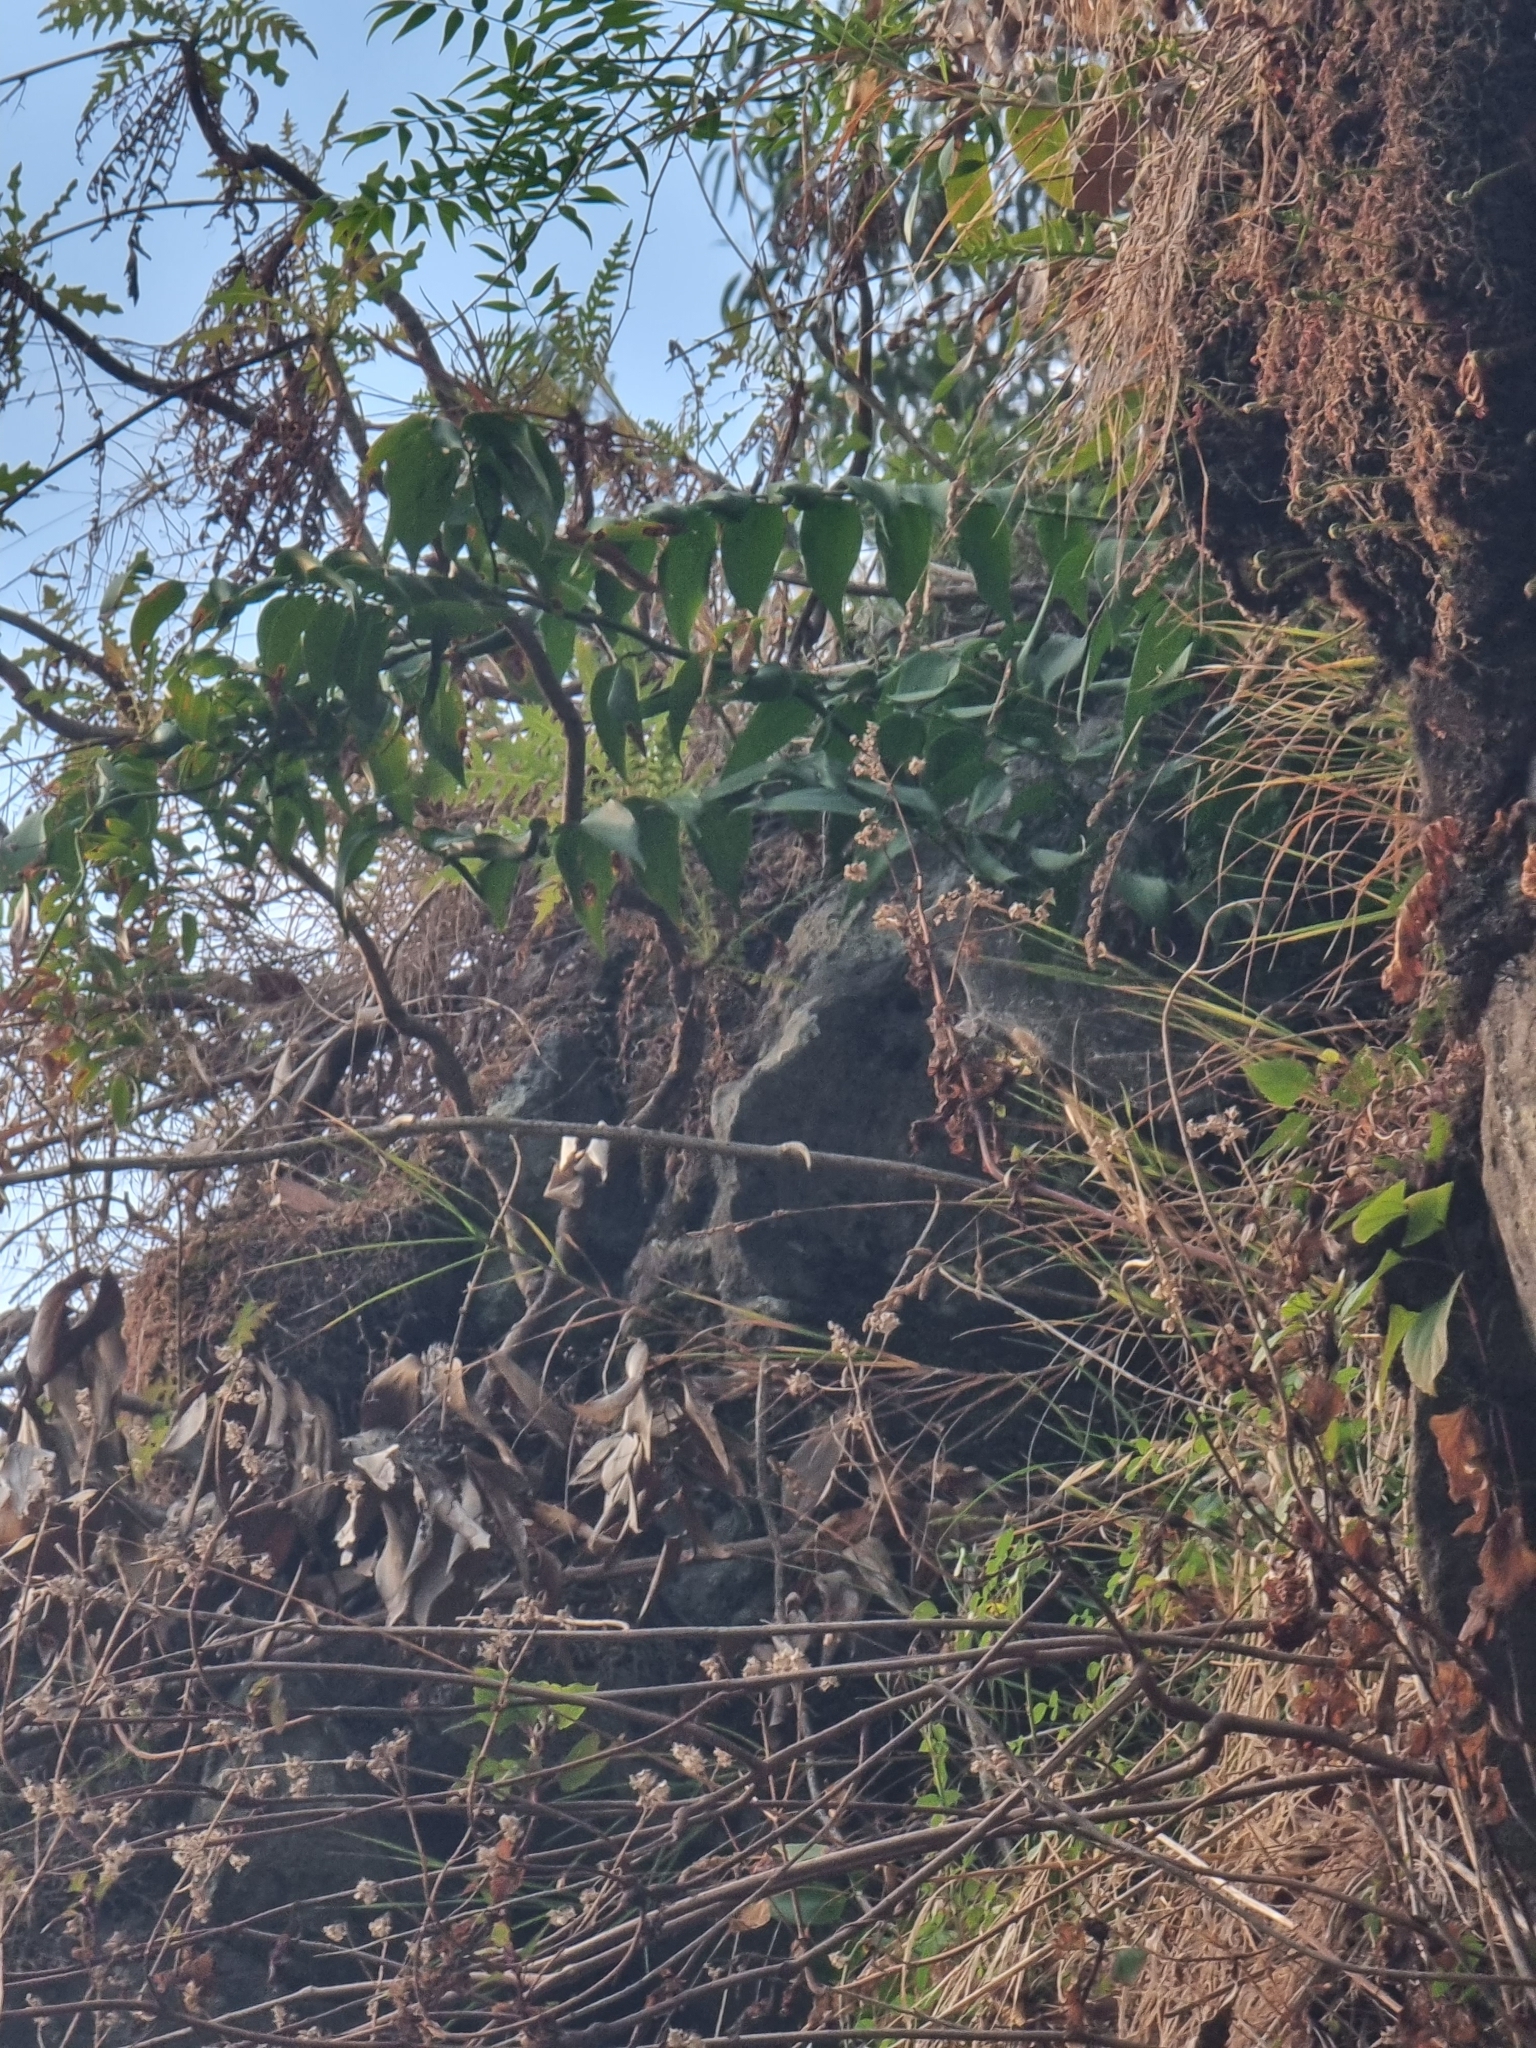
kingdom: Plantae
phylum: Tracheophyta
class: Liliopsida
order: Asparagales
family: Asparagaceae
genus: Semele
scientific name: Semele androgyna
